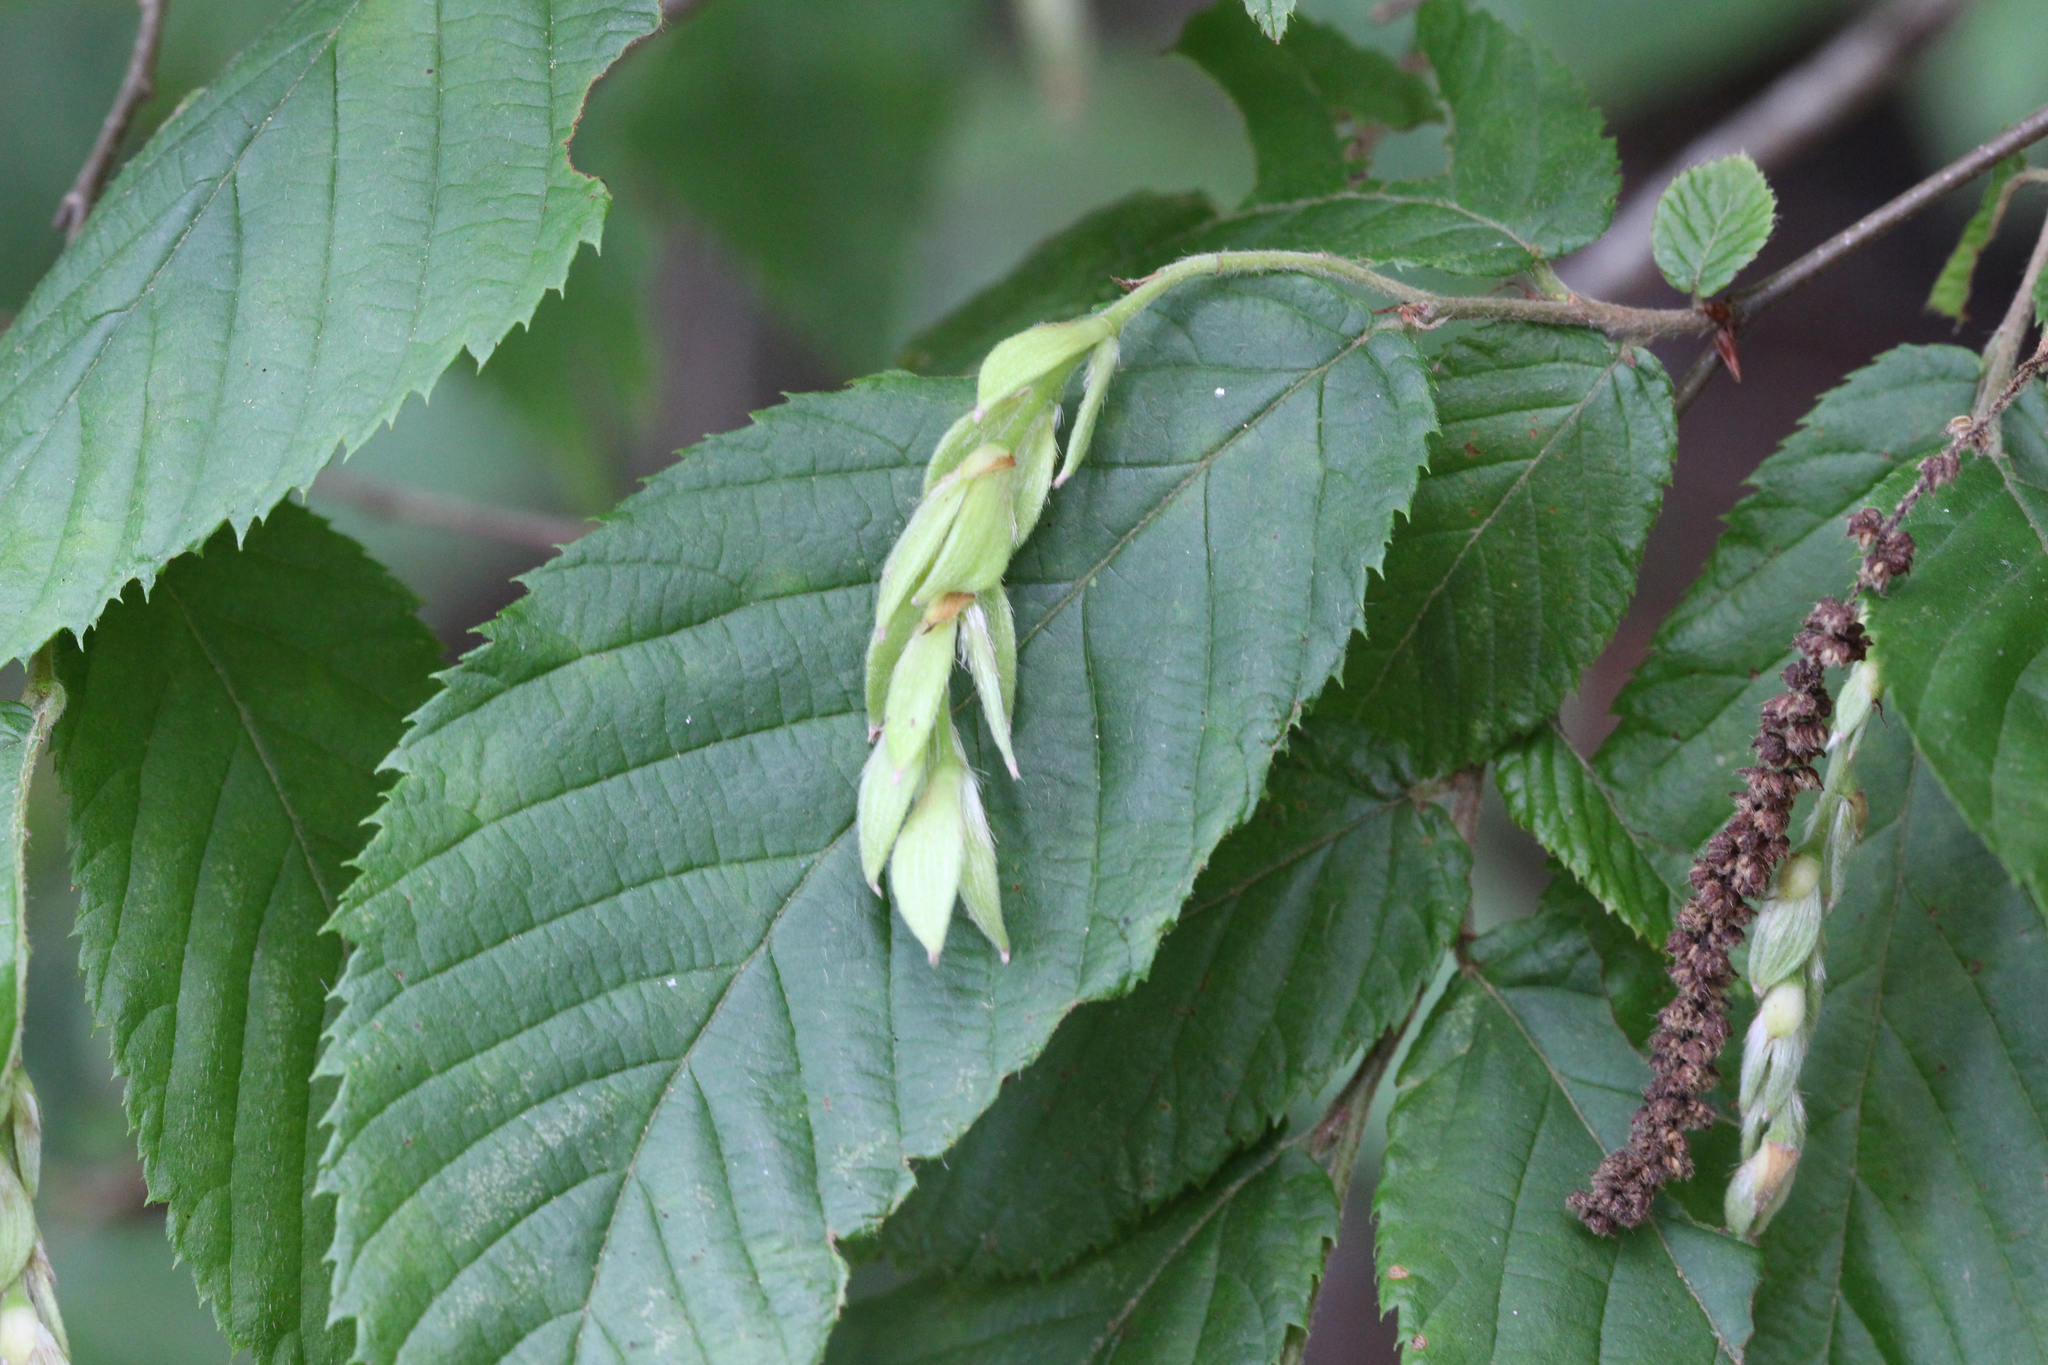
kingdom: Plantae
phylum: Tracheophyta
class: Magnoliopsida
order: Fagales
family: Betulaceae
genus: Ostrya
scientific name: Ostrya virginiana
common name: Ironwood
